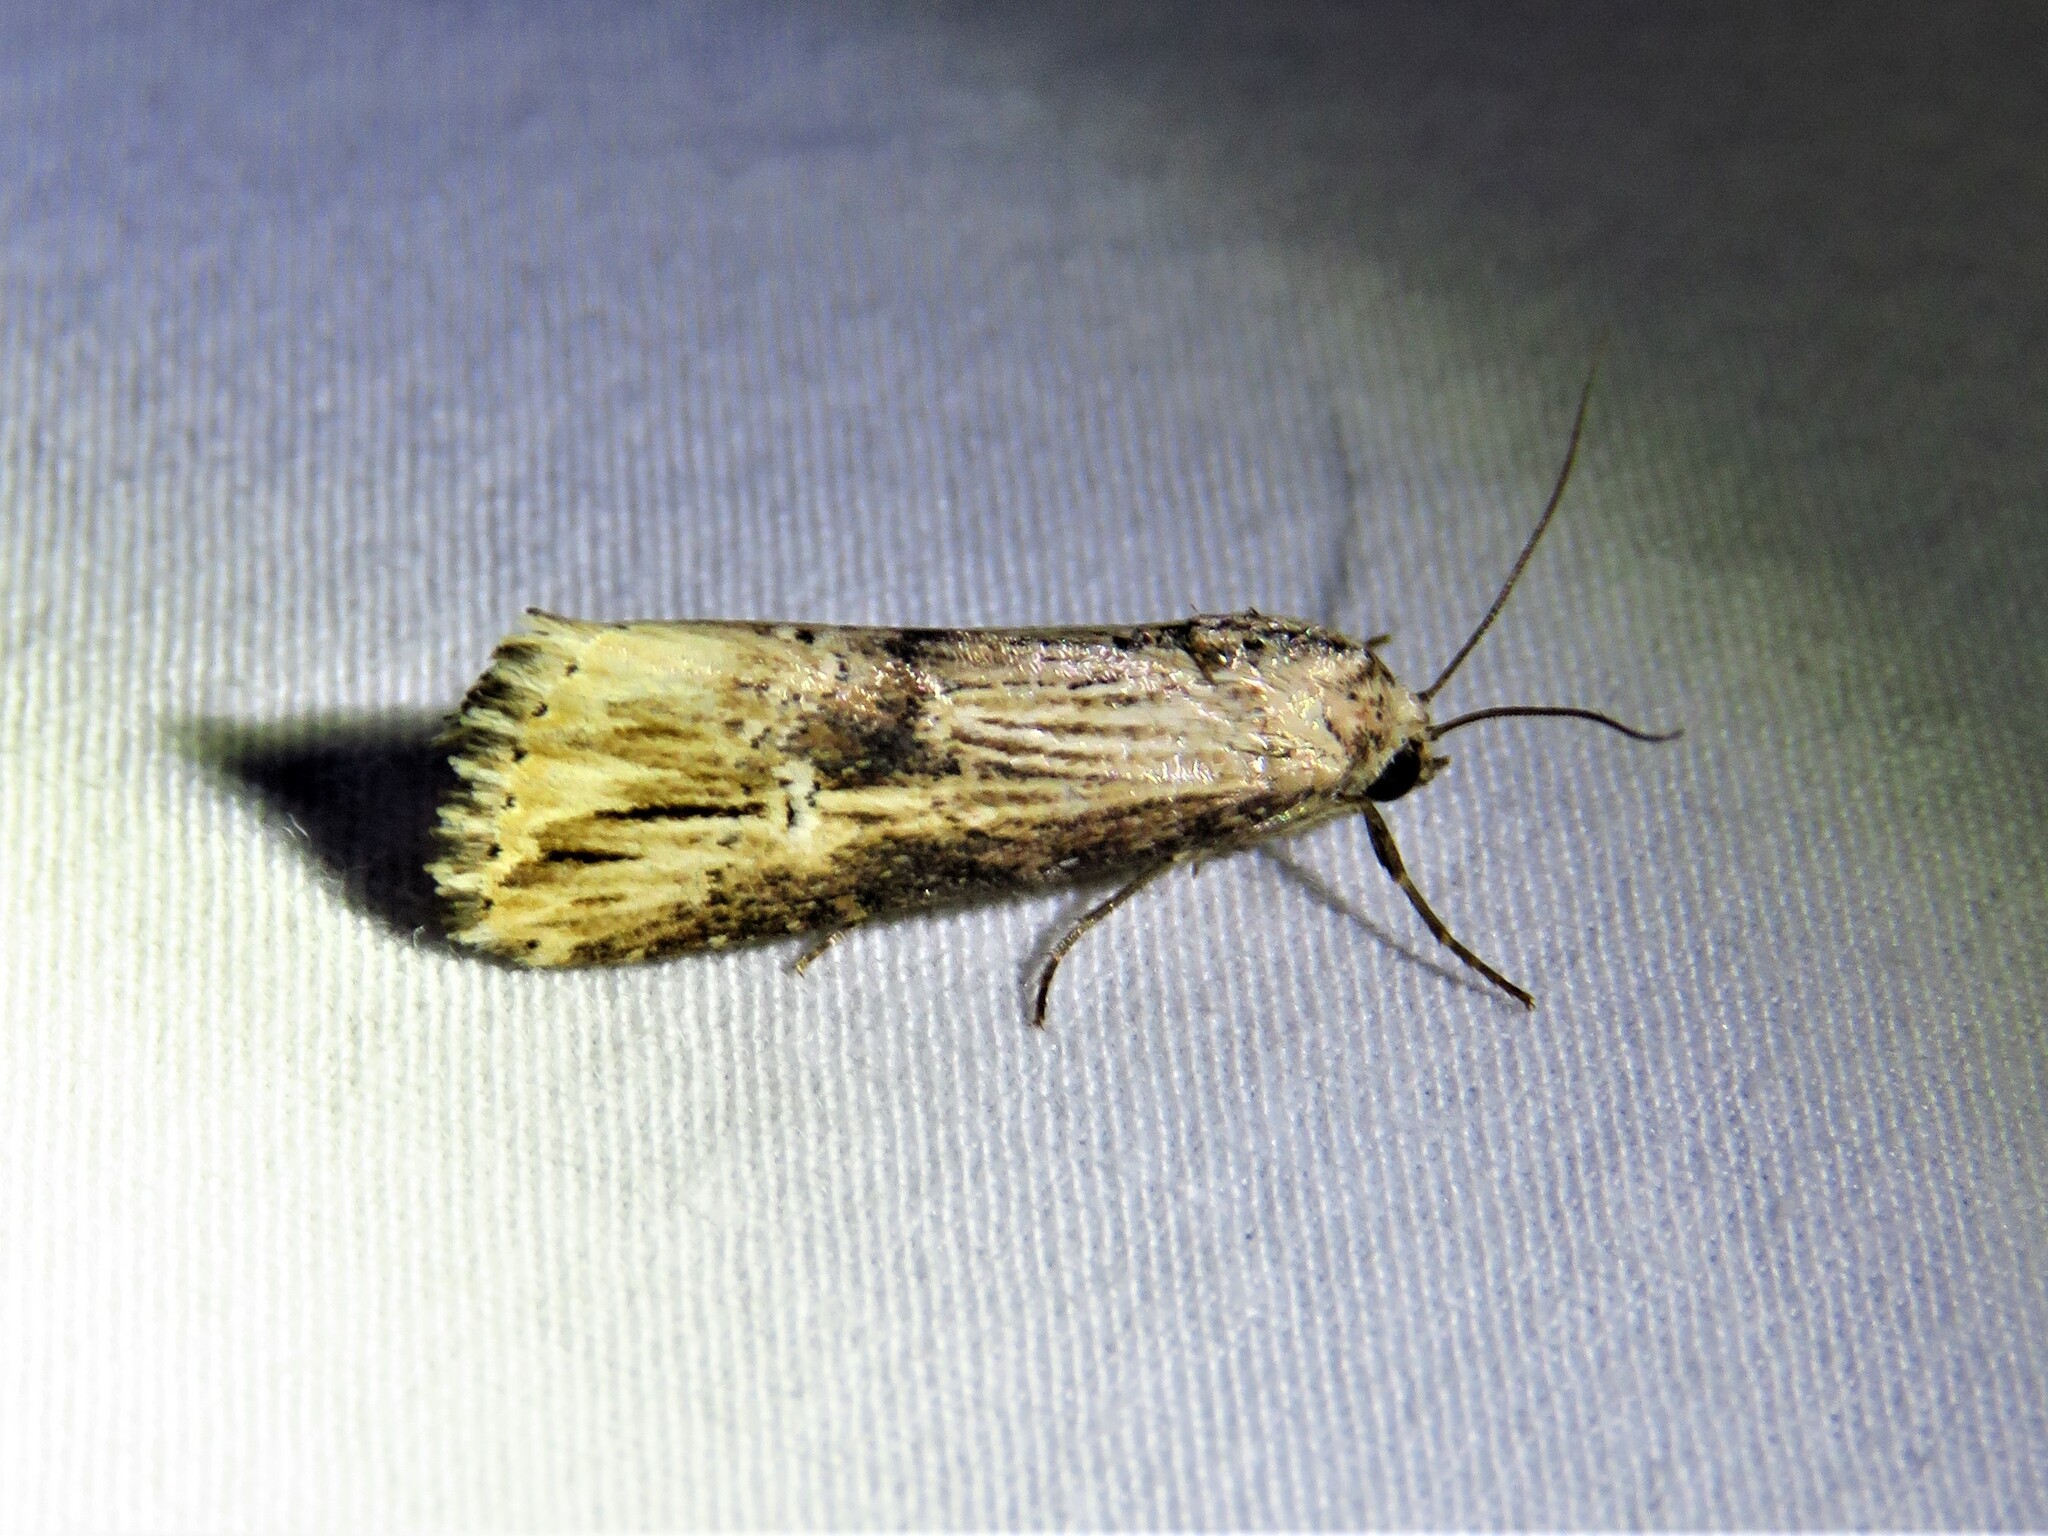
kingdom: Animalia
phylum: Arthropoda
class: Insecta
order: Lepidoptera
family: Noctuidae
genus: Crambodes
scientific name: Crambodes talidiformis
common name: Verbena moth
